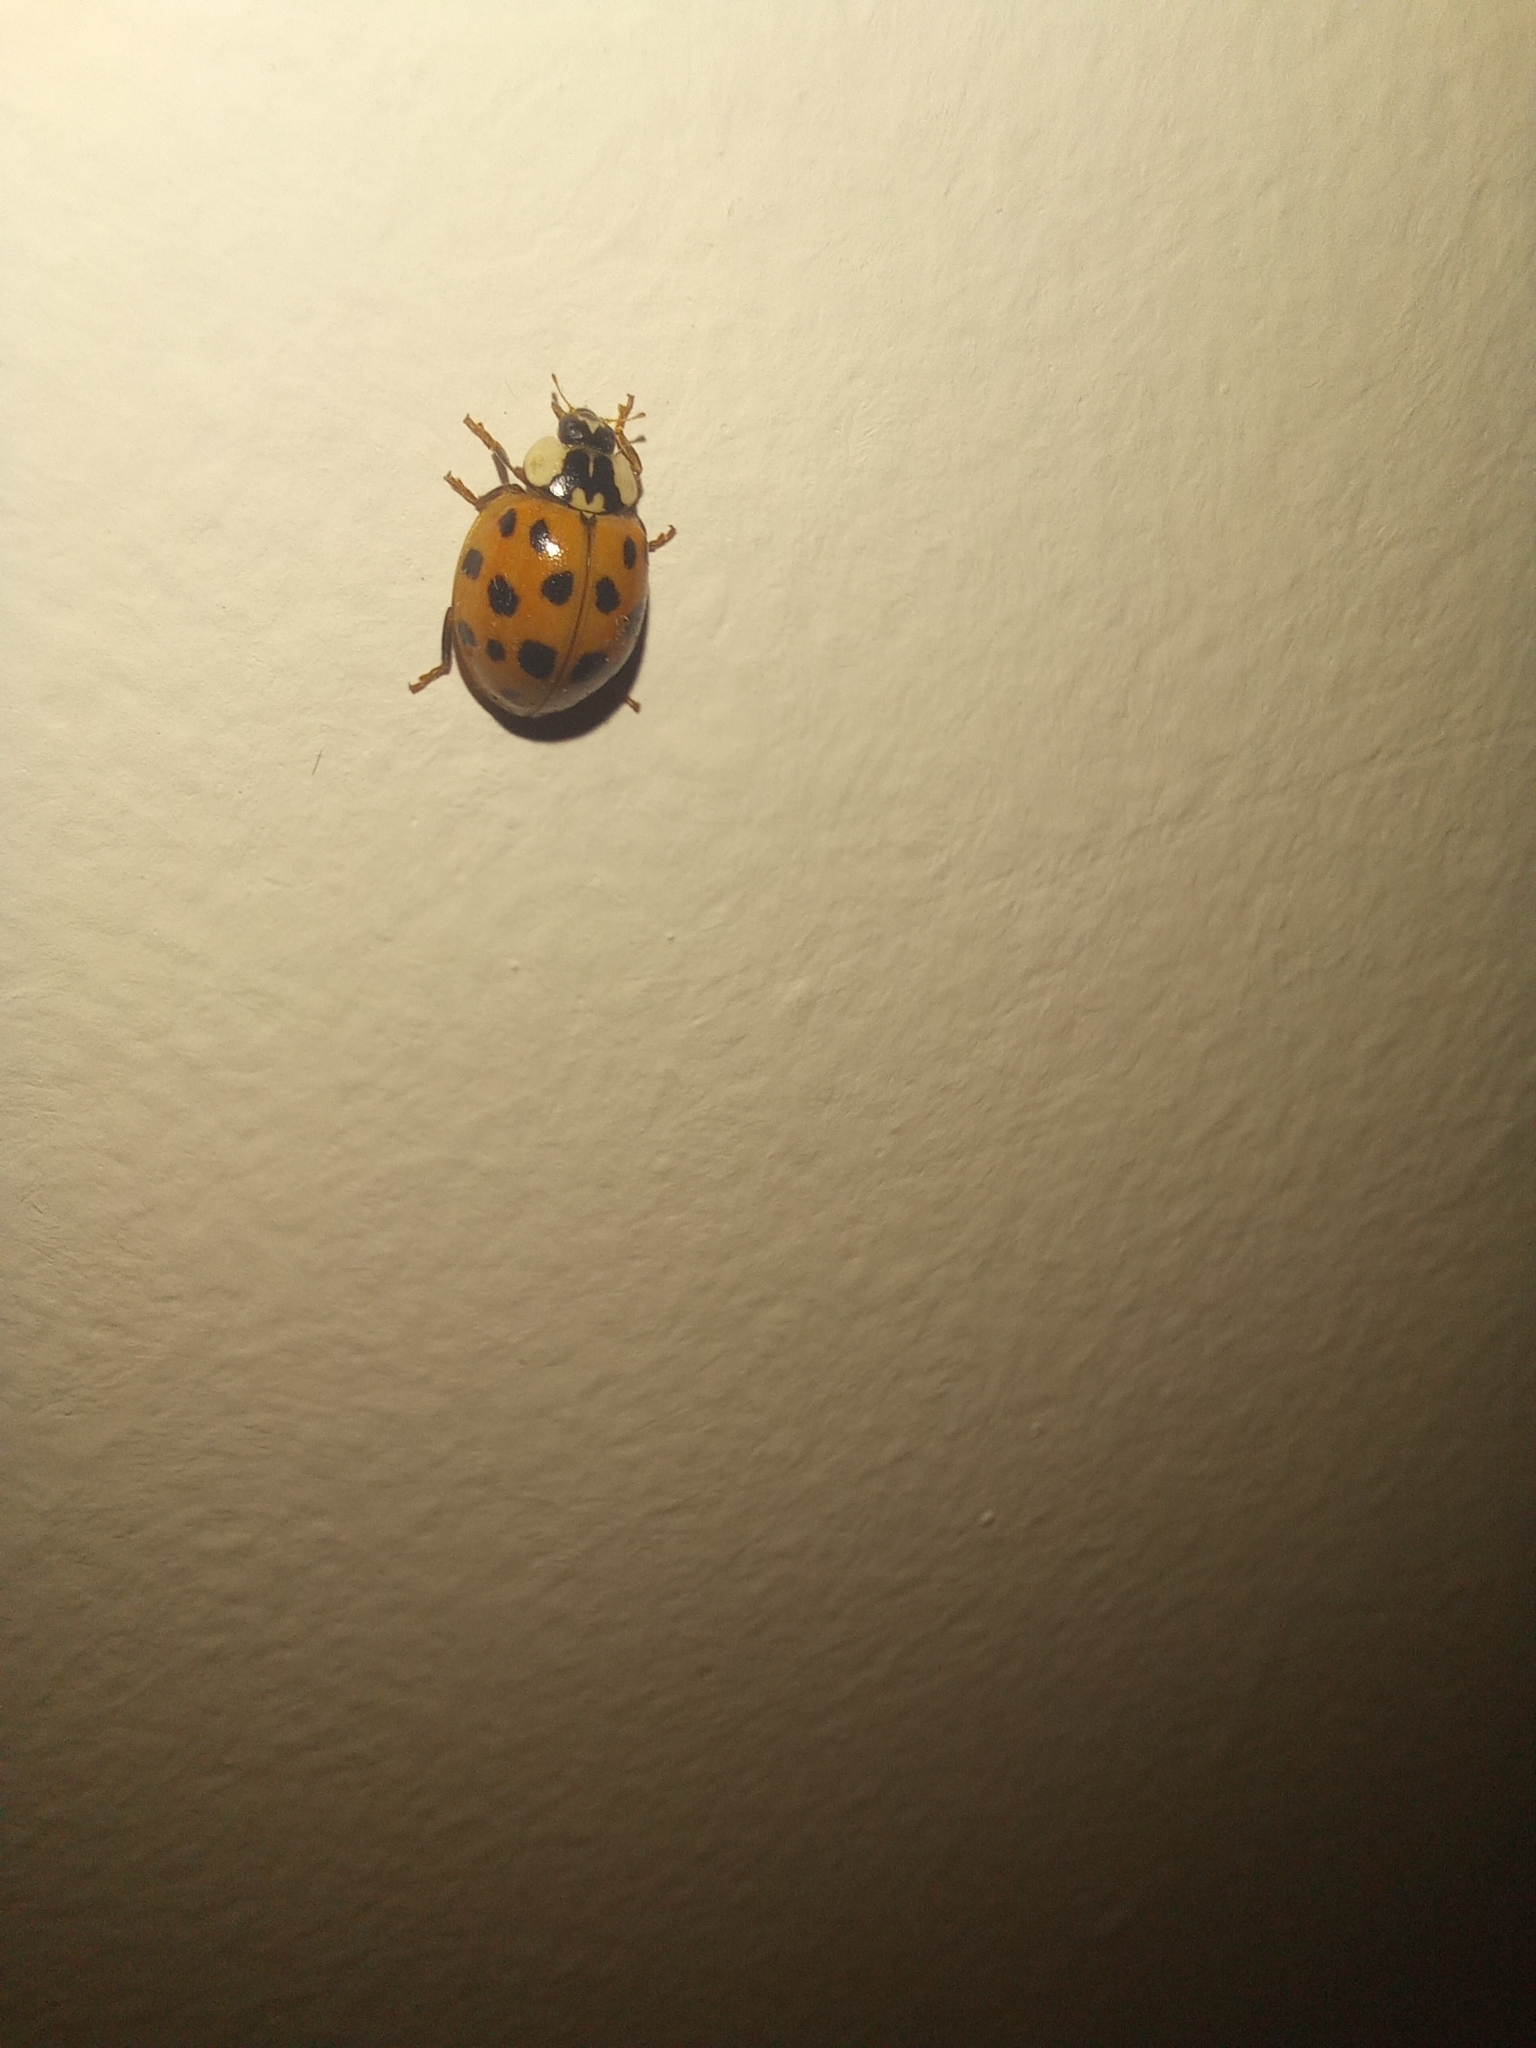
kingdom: Animalia
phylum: Arthropoda
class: Insecta
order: Coleoptera
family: Coccinellidae
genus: Harmonia
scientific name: Harmonia axyridis
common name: Harlequin ladybird
